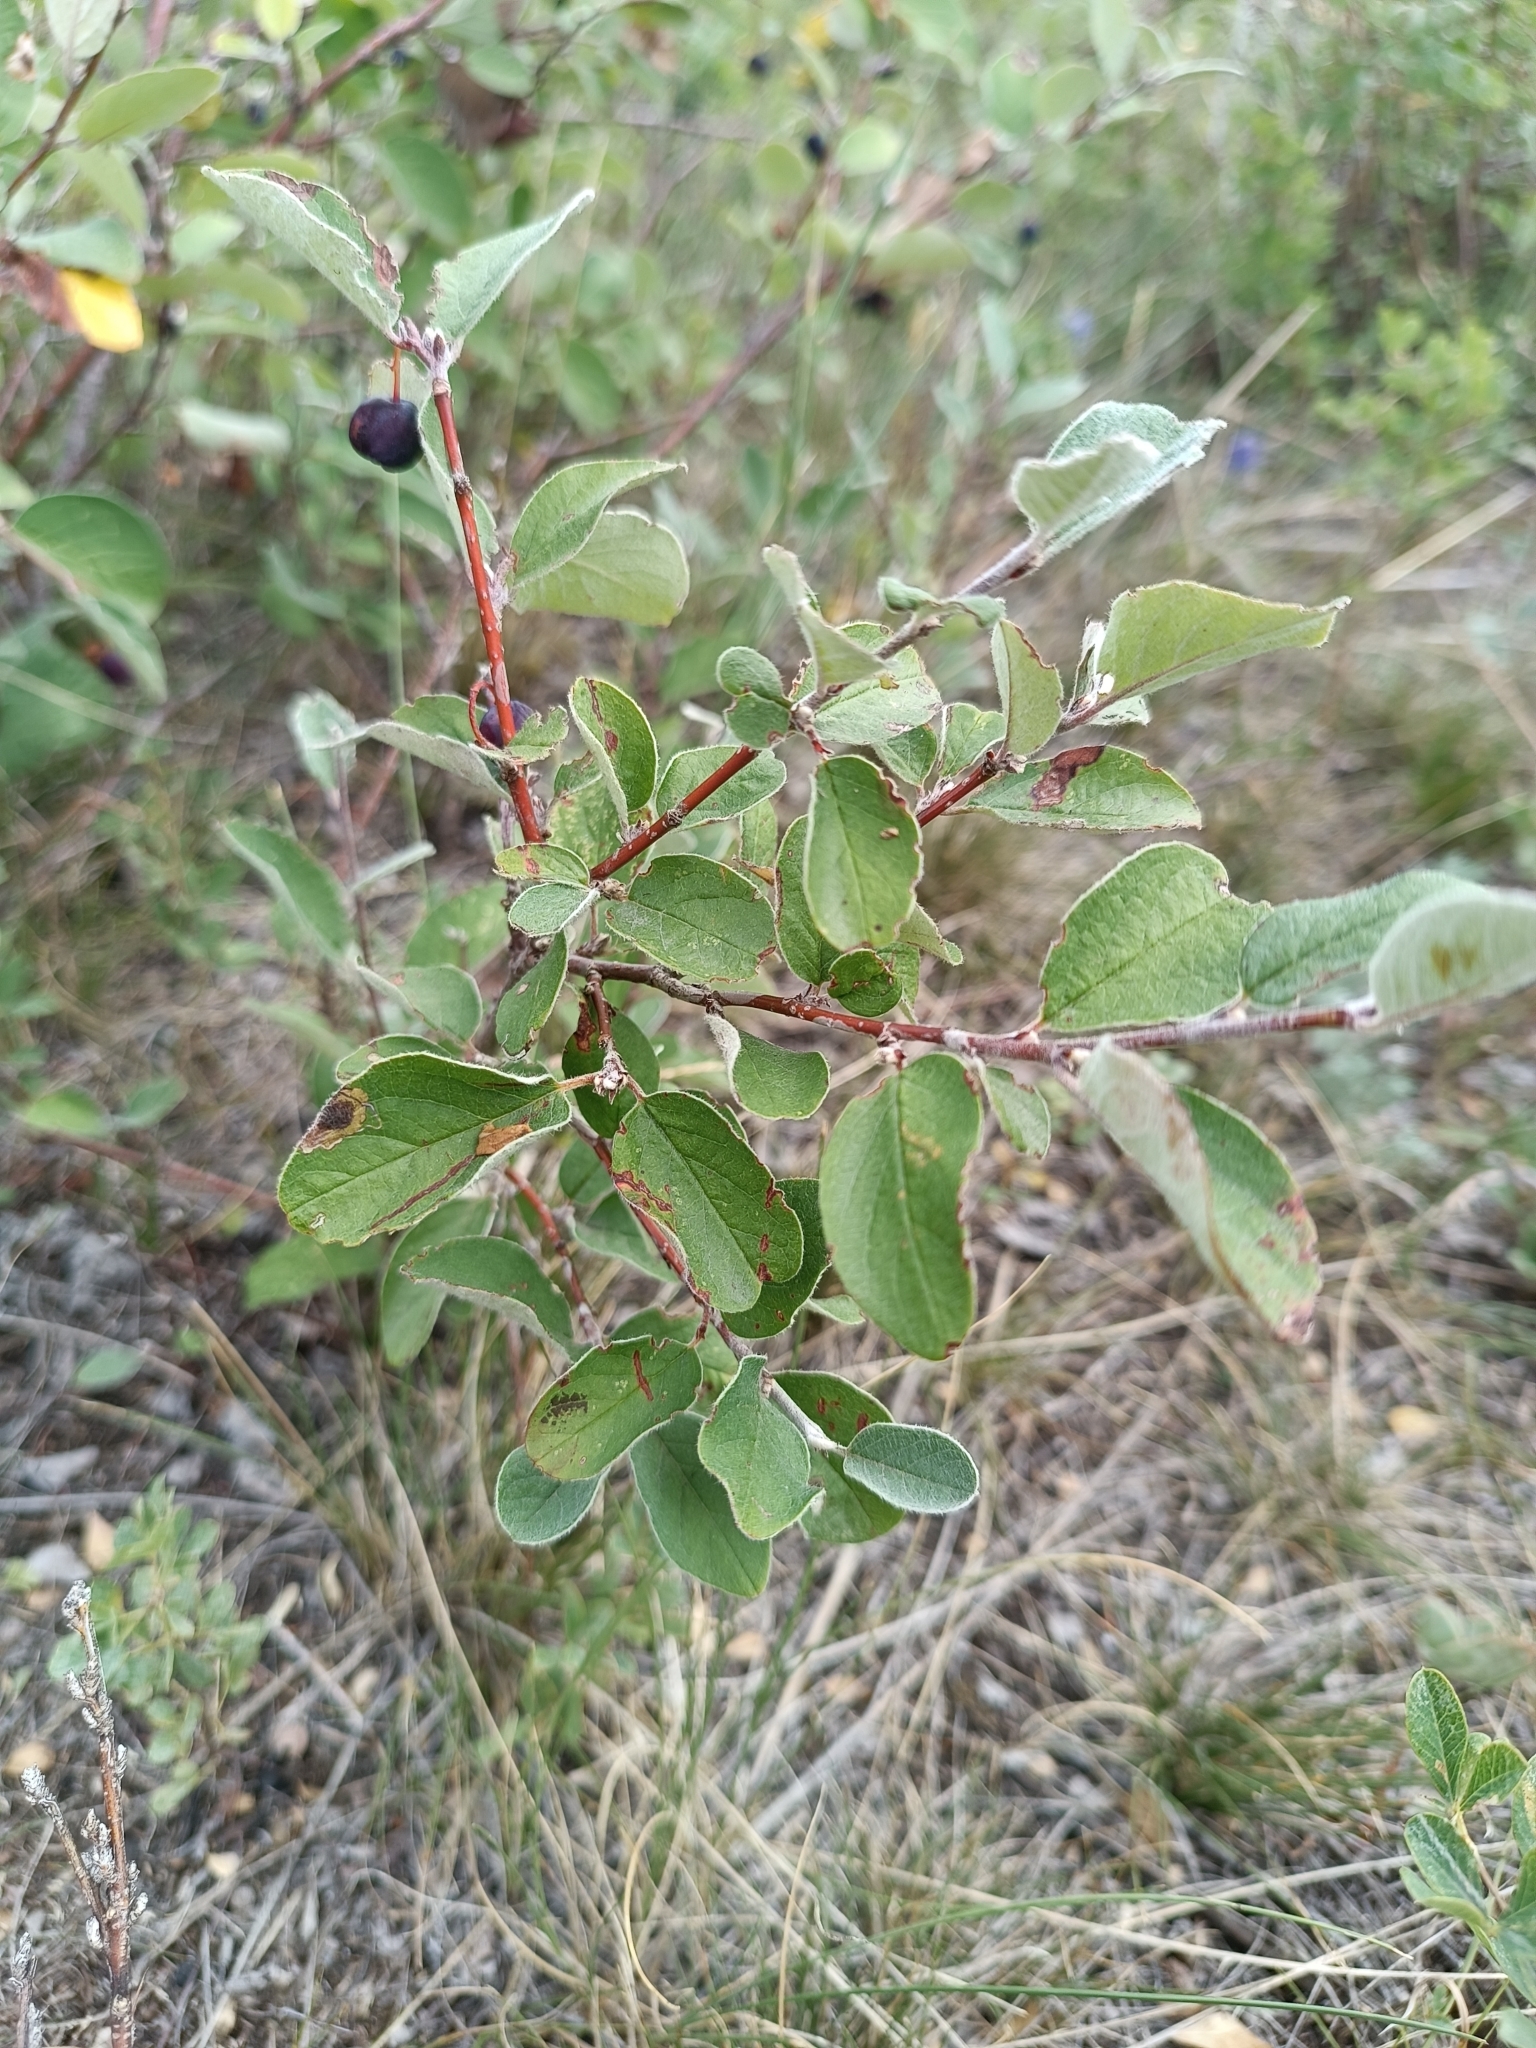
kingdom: Plantae
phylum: Tracheophyta
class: Magnoliopsida
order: Rosales
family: Rosaceae
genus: Cotoneaster
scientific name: Cotoneaster melanocarpus
